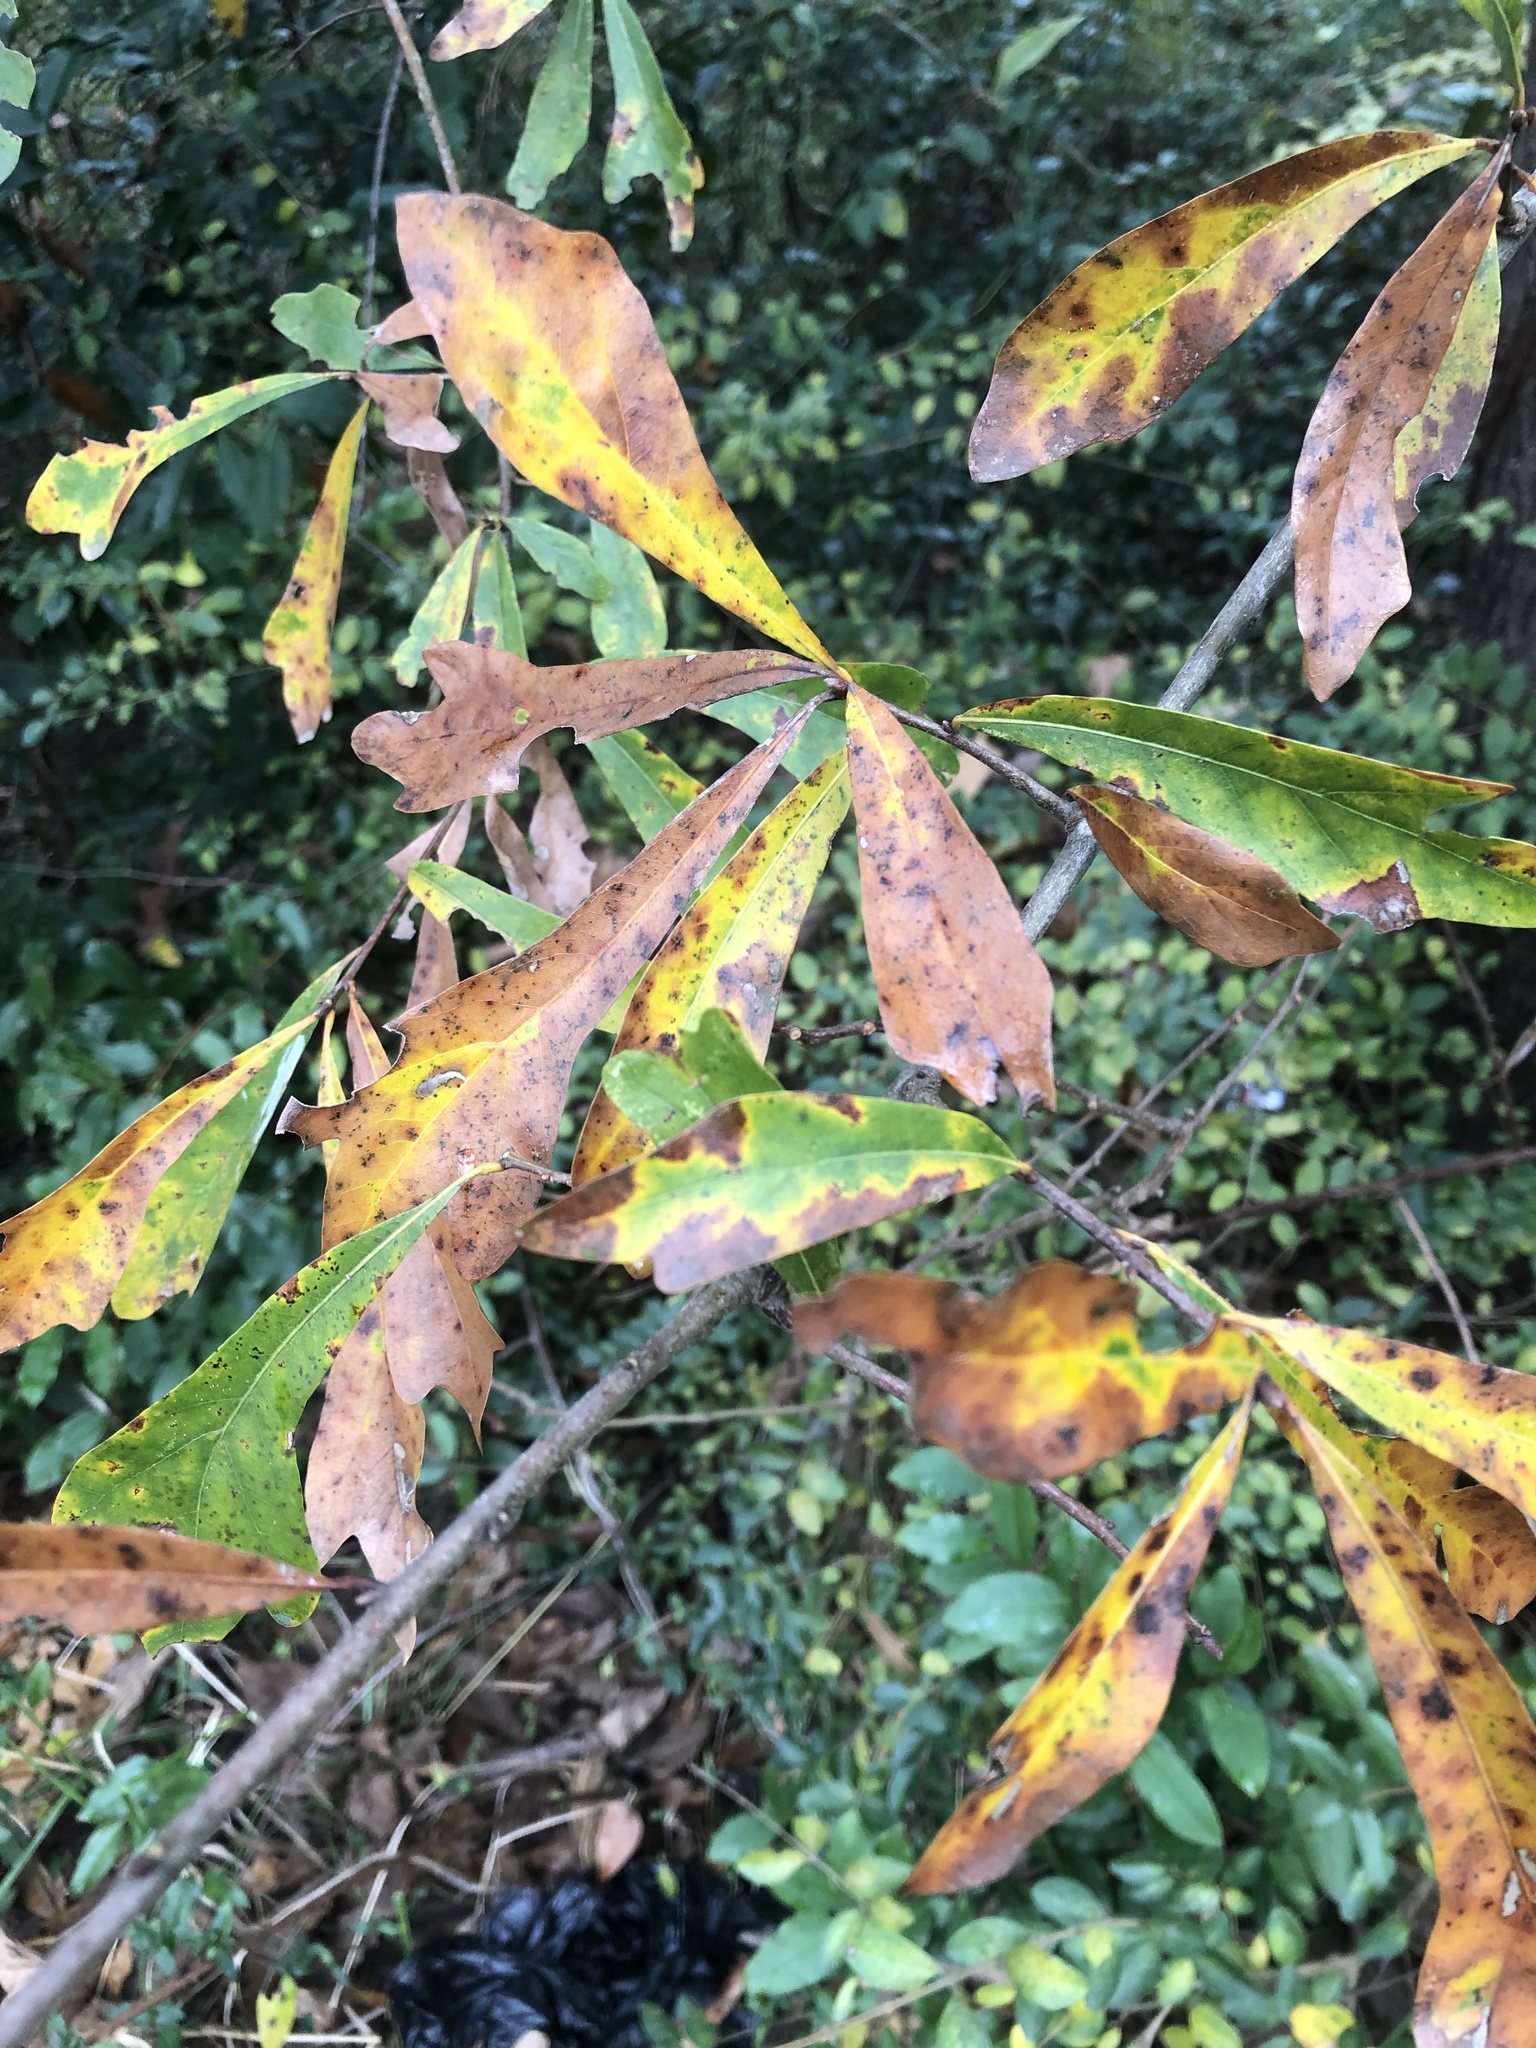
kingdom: Plantae
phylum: Tracheophyta
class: Magnoliopsida
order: Fagales
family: Fagaceae
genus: Quercus
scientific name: Quercus nigra
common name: Water oak
